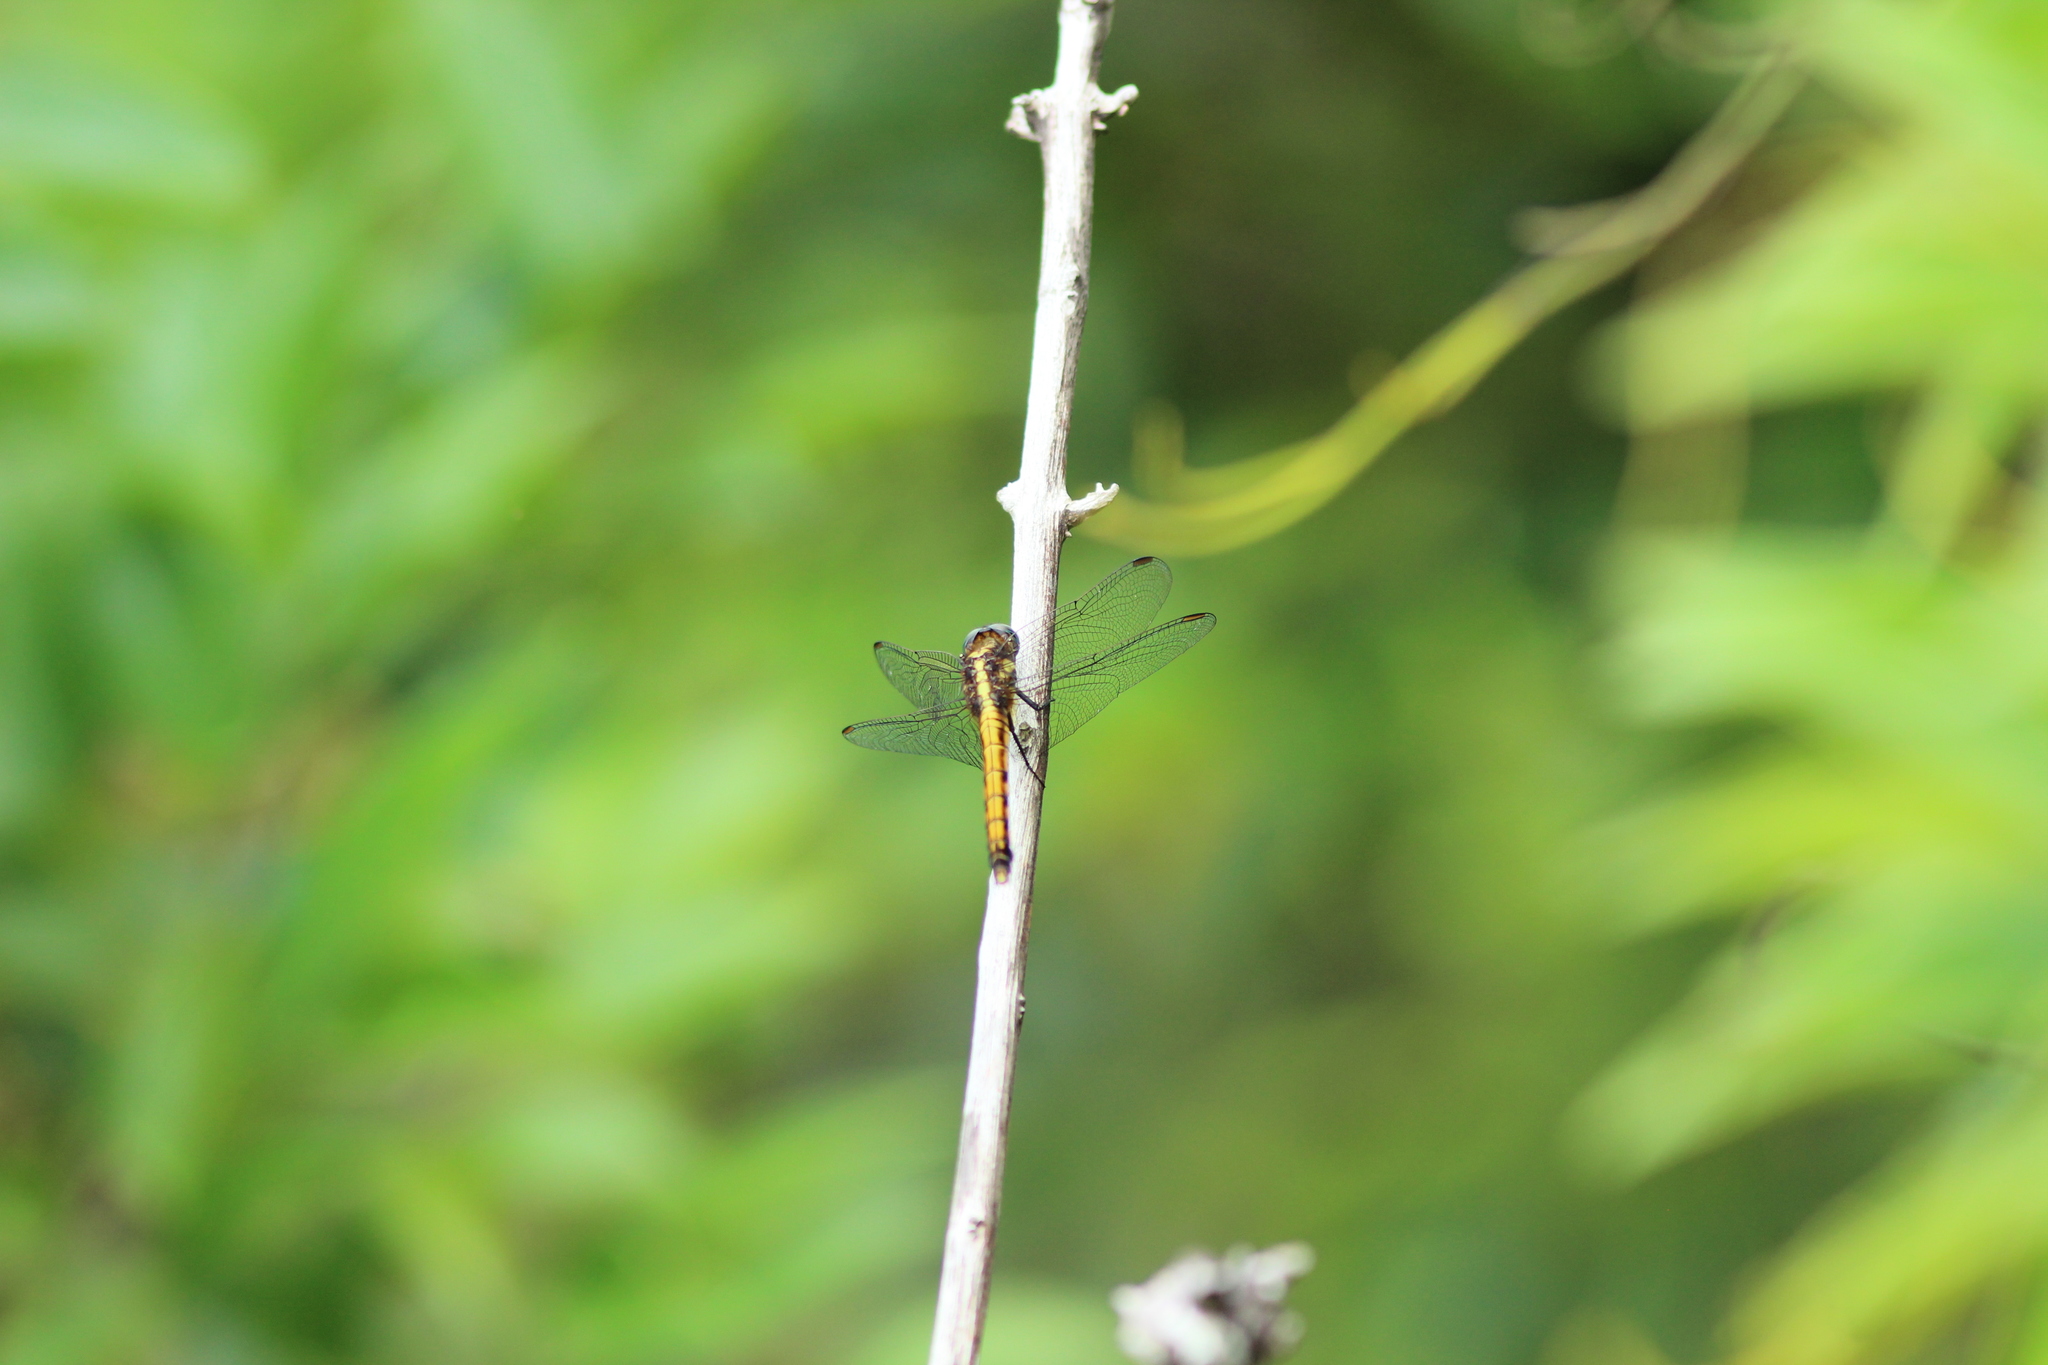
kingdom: Animalia
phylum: Arthropoda
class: Insecta
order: Odonata
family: Libellulidae
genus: Orthetrum
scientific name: Orthetrum glaucum
